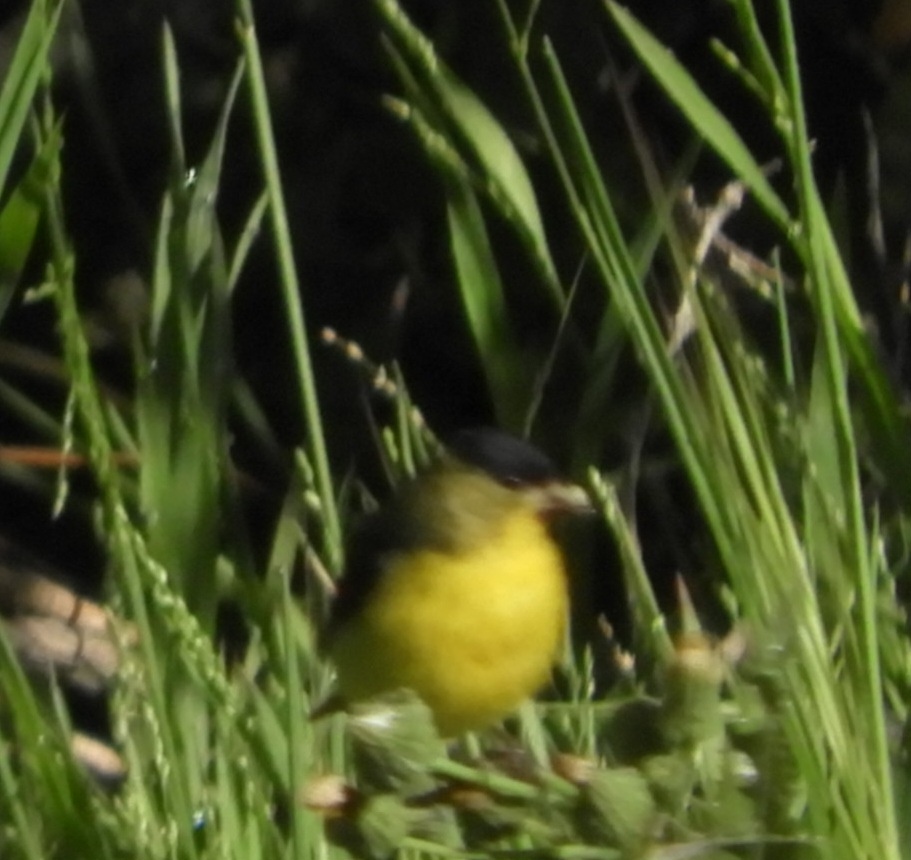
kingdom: Animalia
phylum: Chordata
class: Aves
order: Passeriformes
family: Fringillidae
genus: Spinus
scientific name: Spinus psaltria
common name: Lesser goldfinch
